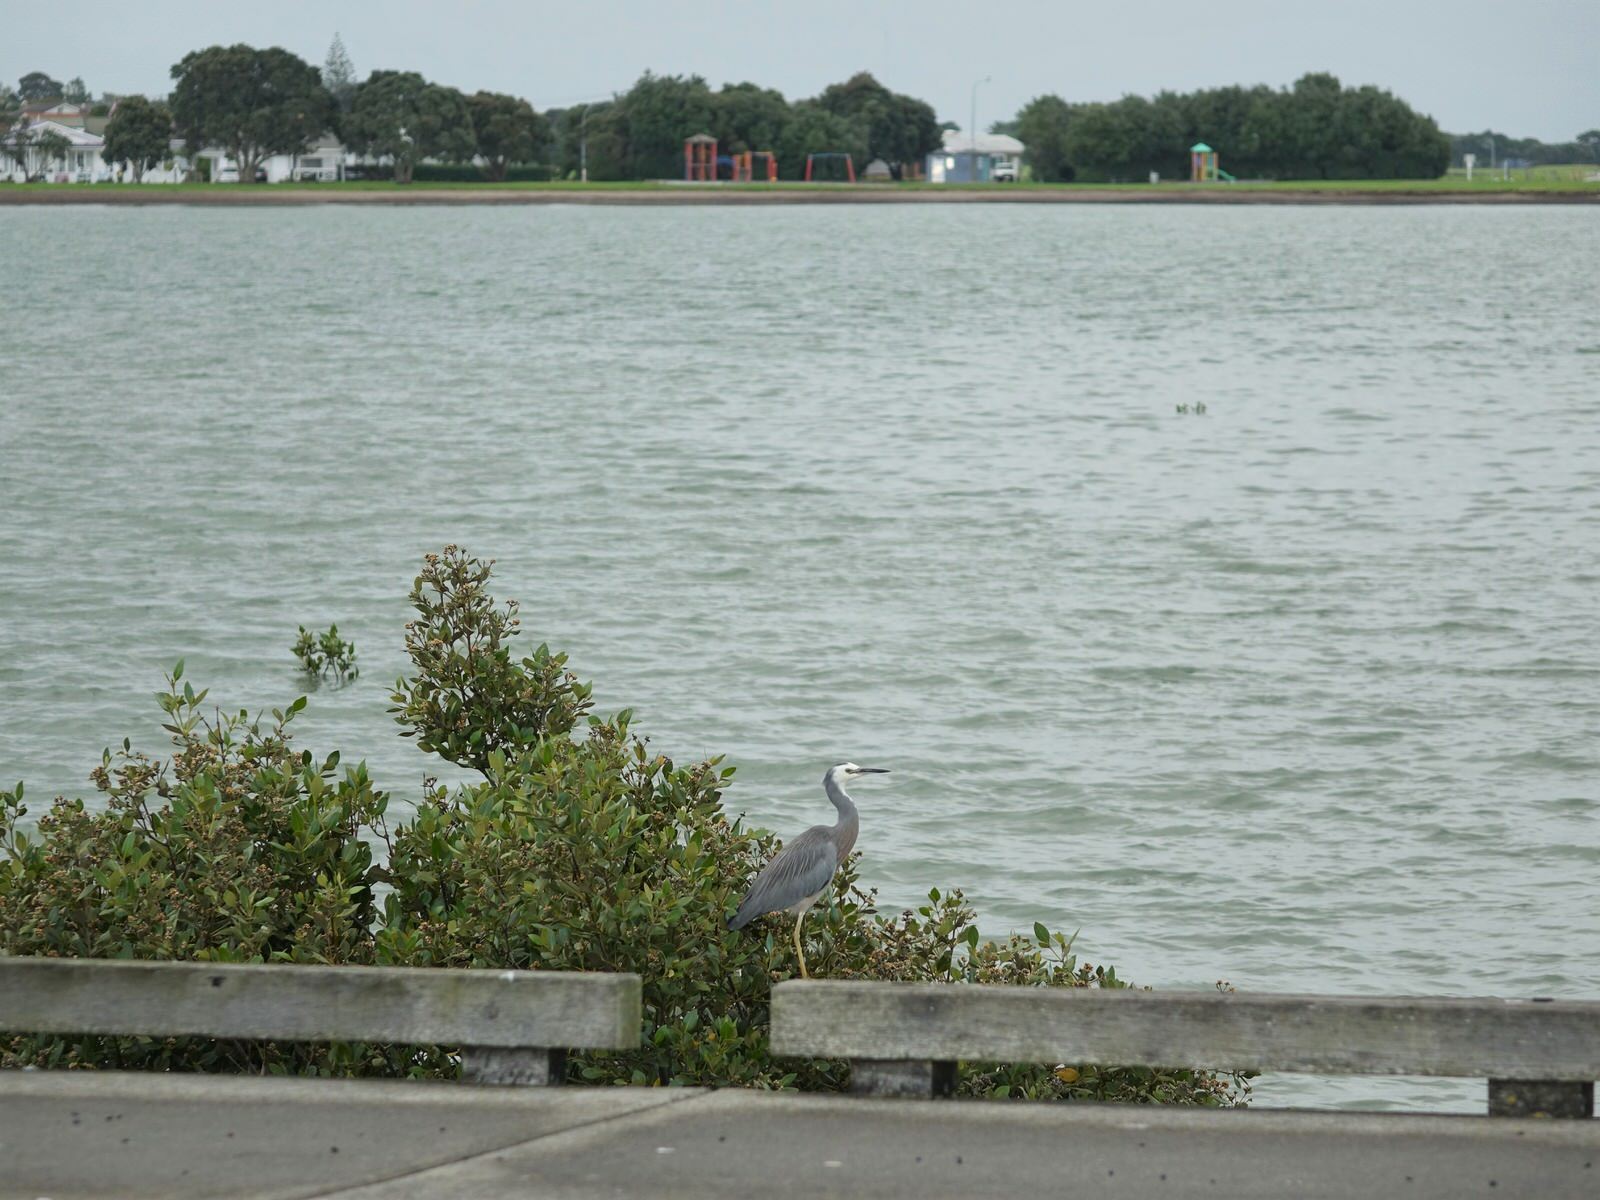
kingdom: Animalia
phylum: Chordata
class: Aves
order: Pelecaniformes
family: Ardeidae
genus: Egretta
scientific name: Egretta novaehollandiae
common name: White-faced heron
